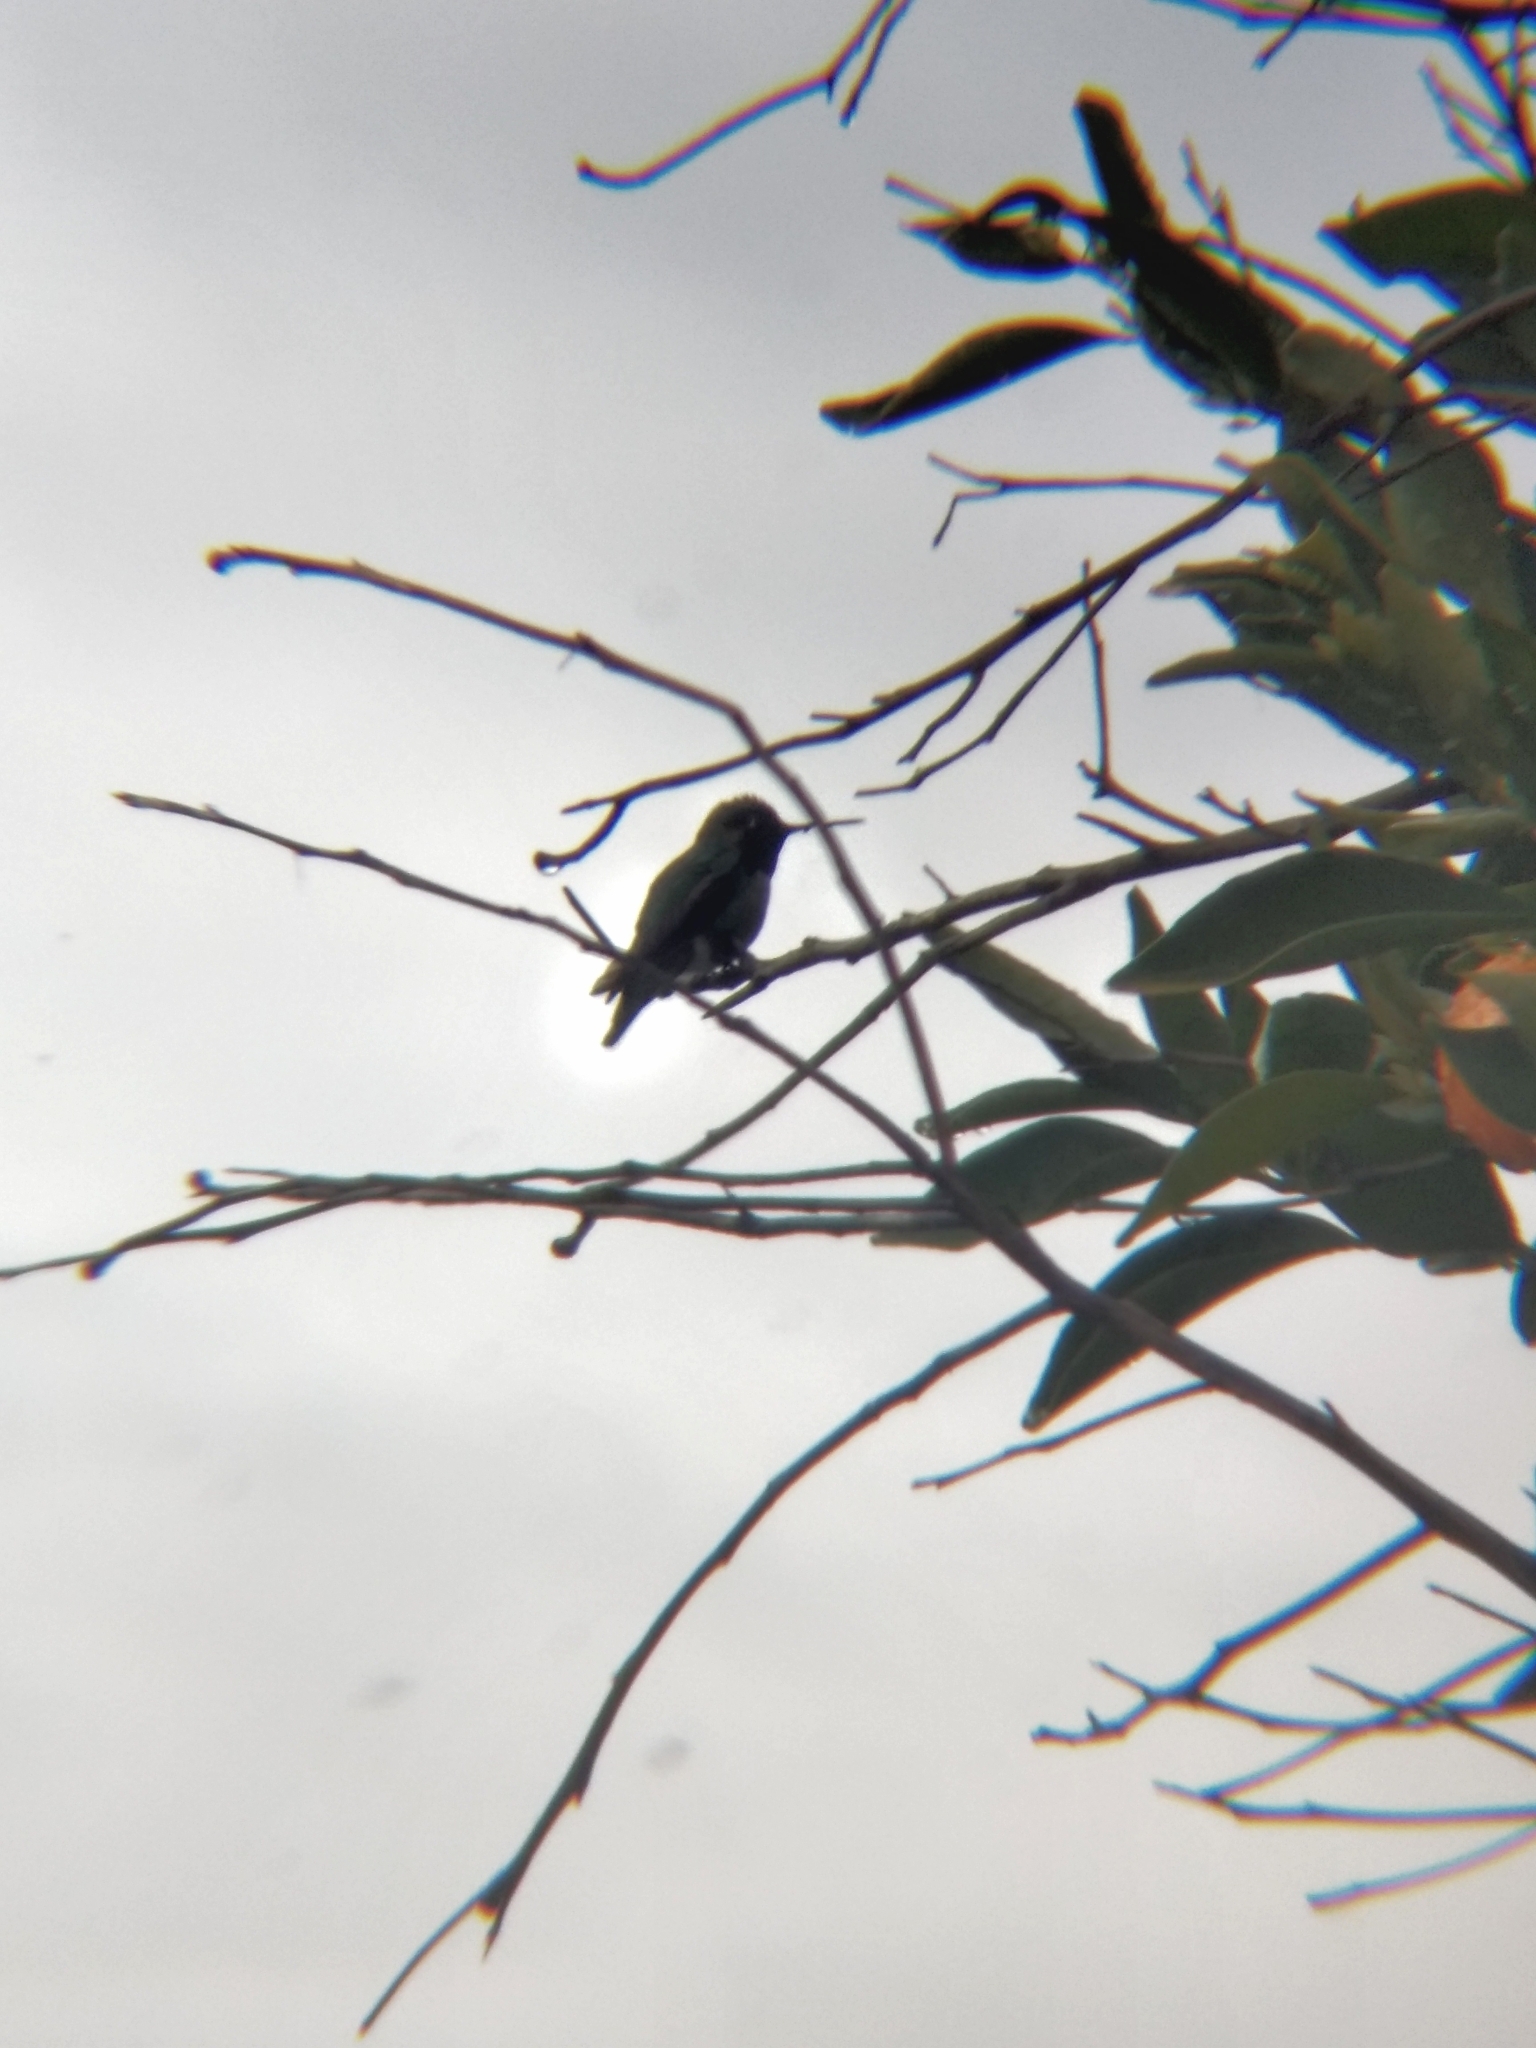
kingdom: Animalia
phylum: Chordata
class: Aves
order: Apodiformes
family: Trochilidae
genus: Calypte
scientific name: Calypte anna
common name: Anna's hummingbird
